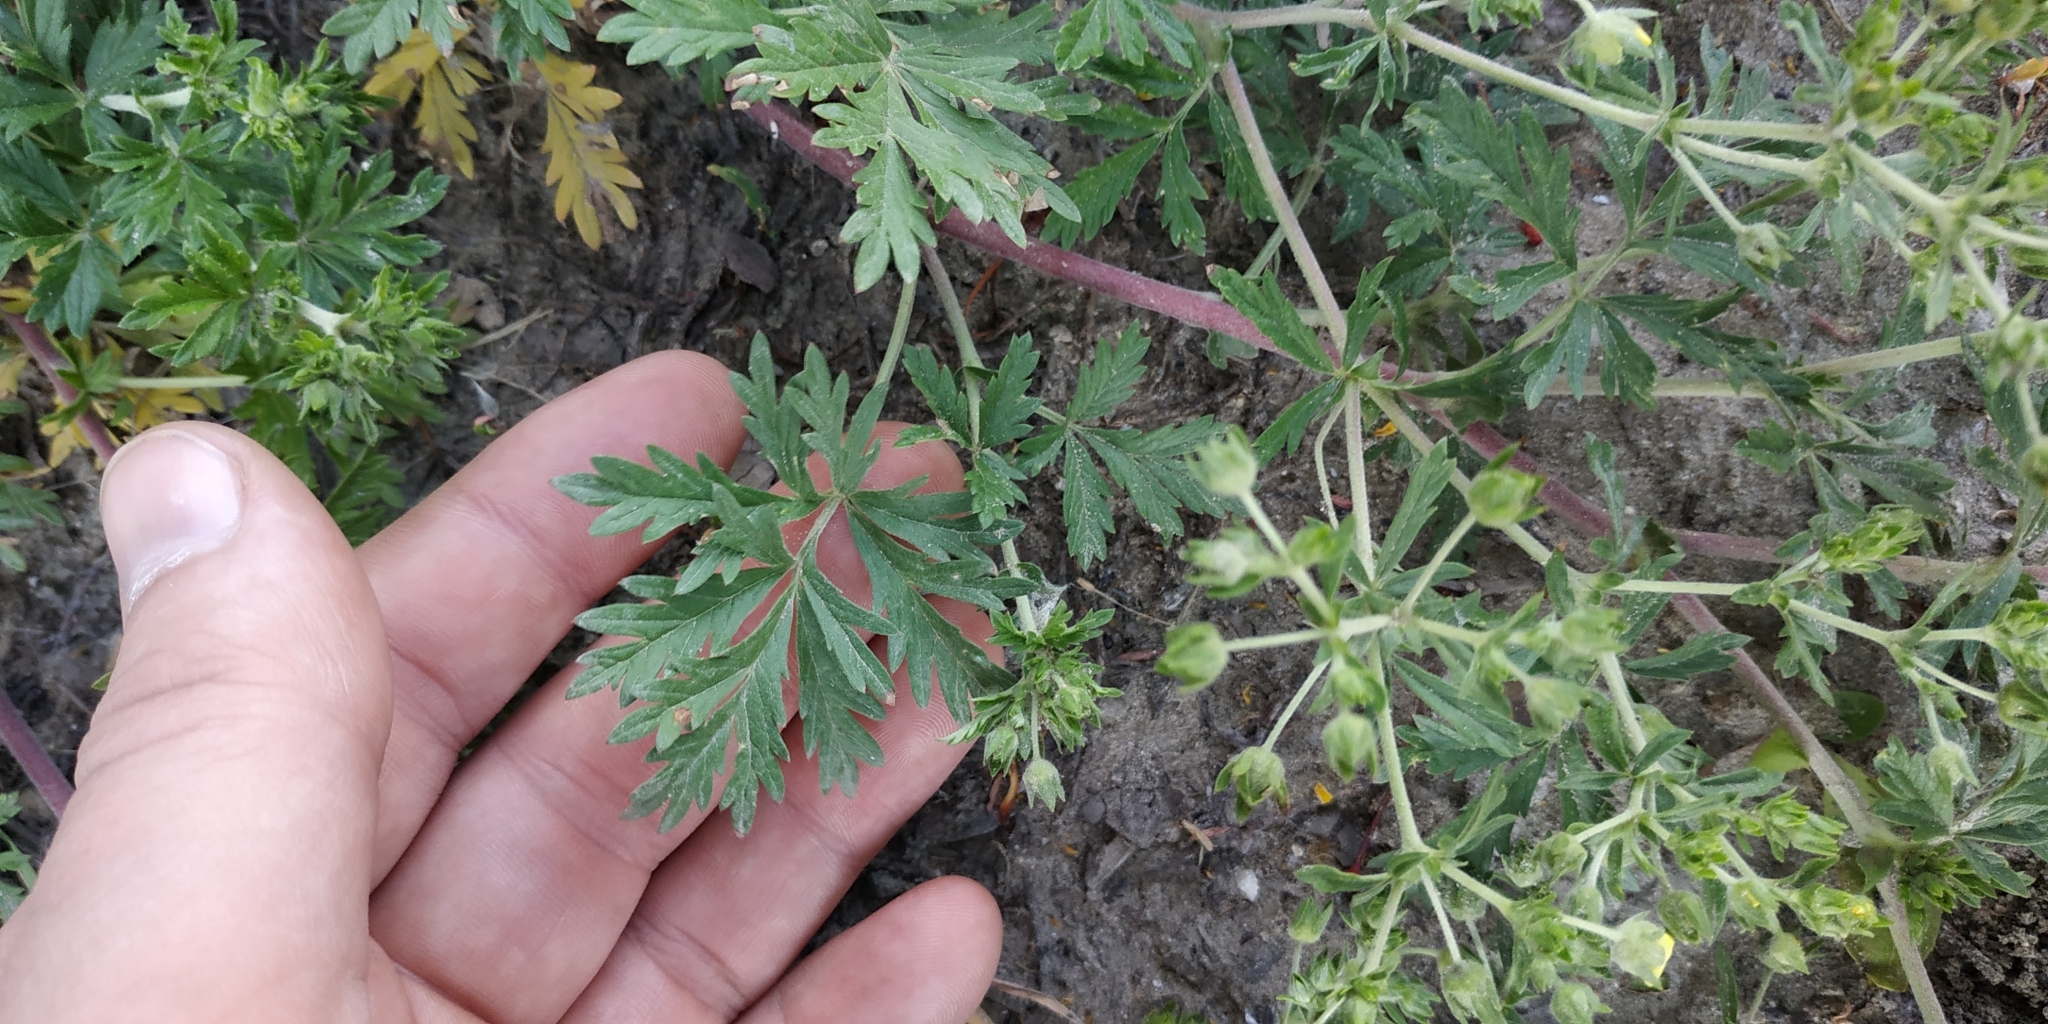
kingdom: Plantae
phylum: Tracheophyta
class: Magnoliopsida
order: Rosales
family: Rosaceae
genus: Potentilla
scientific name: Potentilla tobolensis
